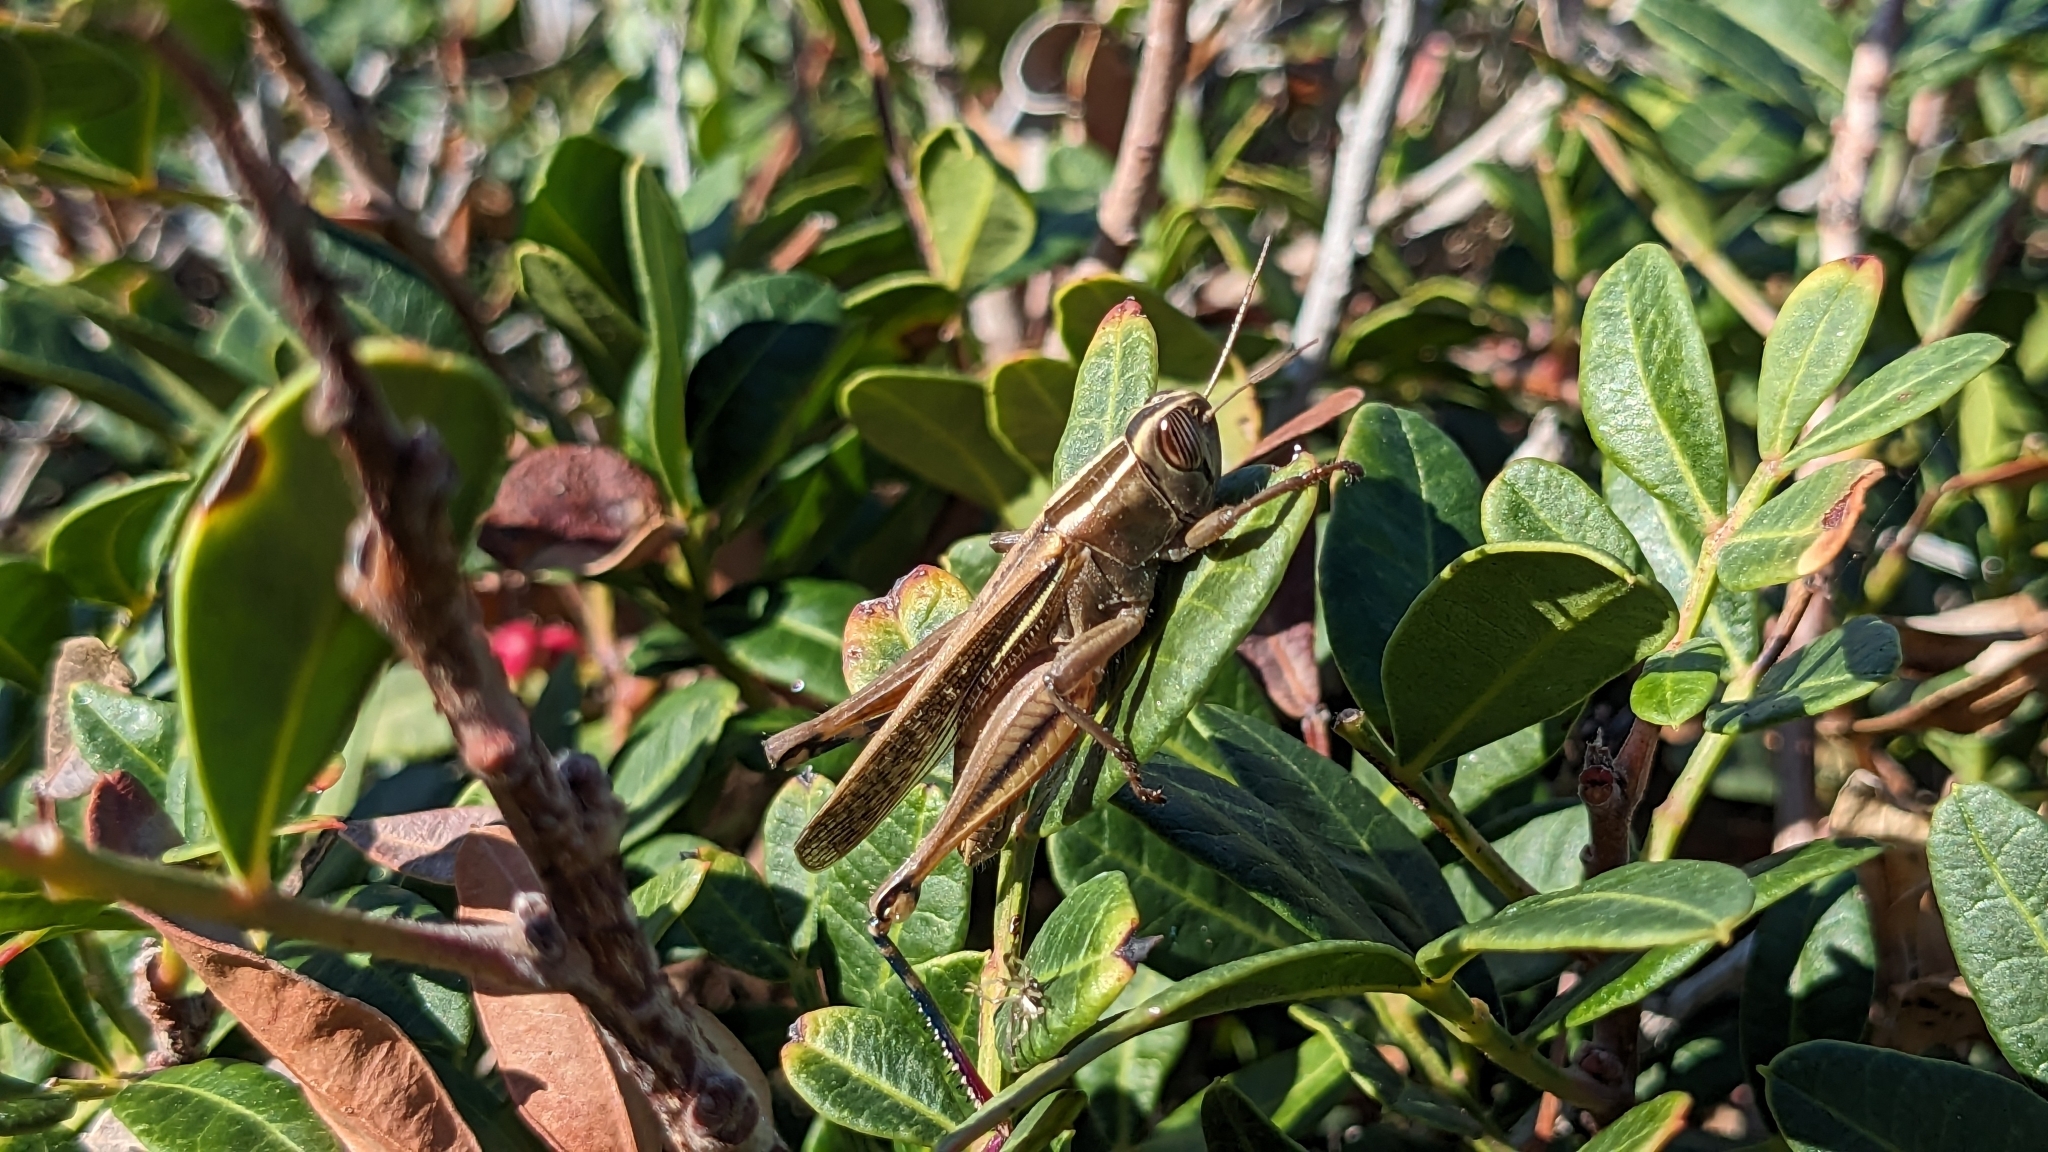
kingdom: Animalia
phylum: Arthropoda
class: Insecta
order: Orthoptera
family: Acrididae
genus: Eyprepocnemis
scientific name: Eyprepocnemis plorans
